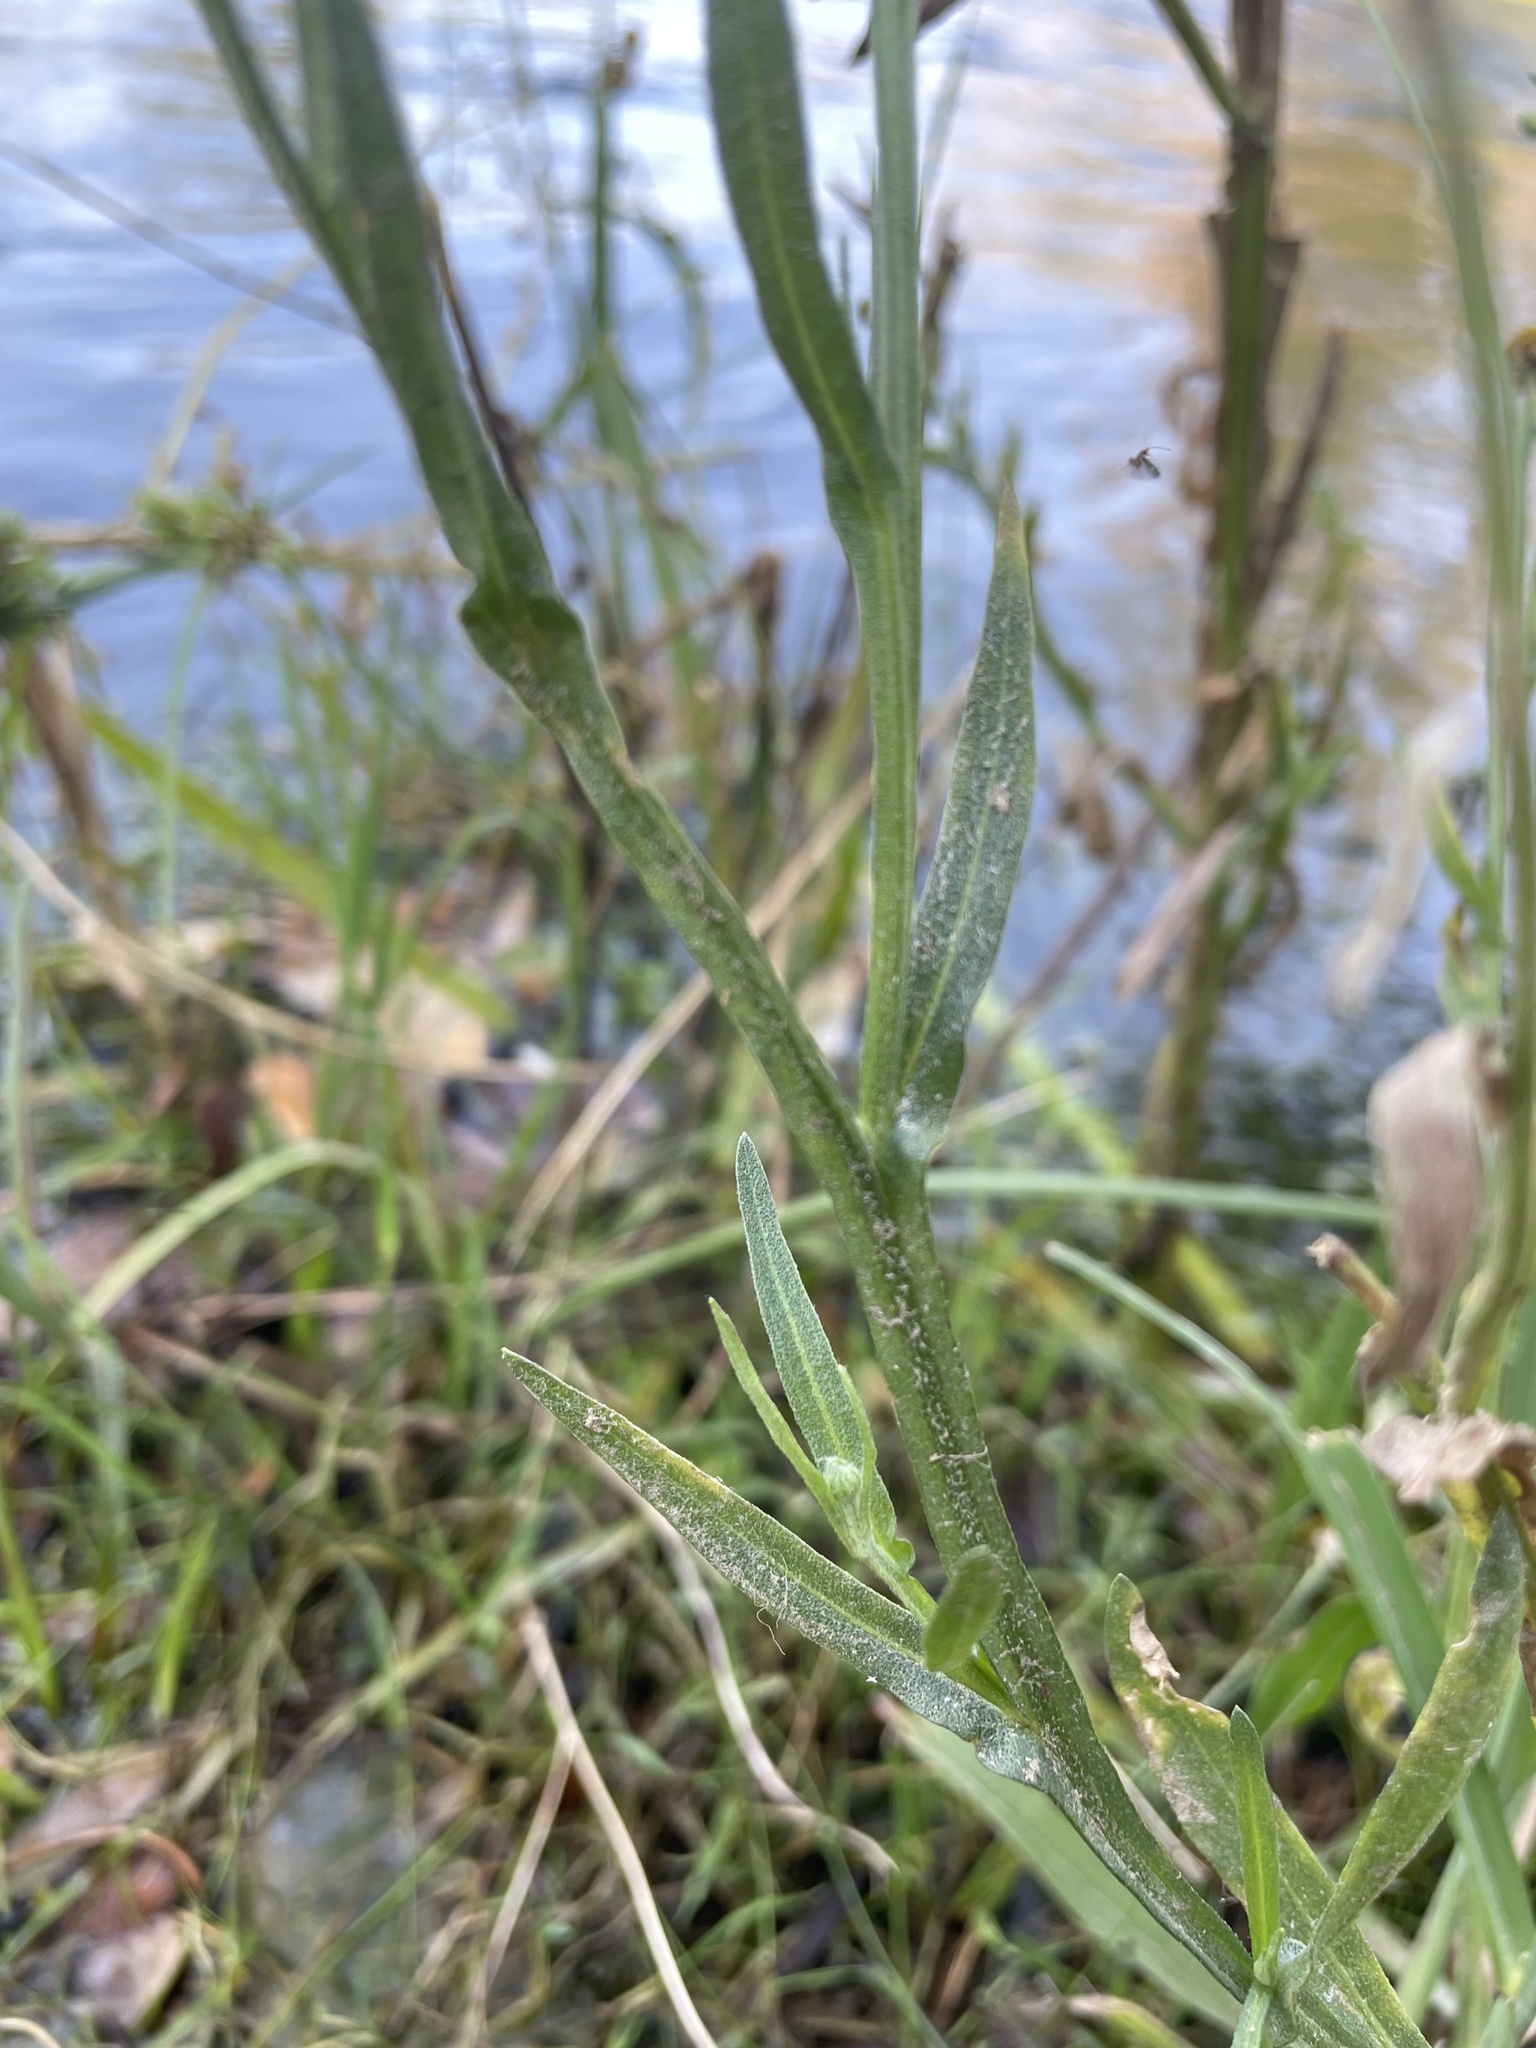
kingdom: Plantae
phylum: Tracheophyta
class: Magnoliopsida
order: Asterales
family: Asteraceae
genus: Helenium
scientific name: Helenium puberulum
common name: Sneezewort
